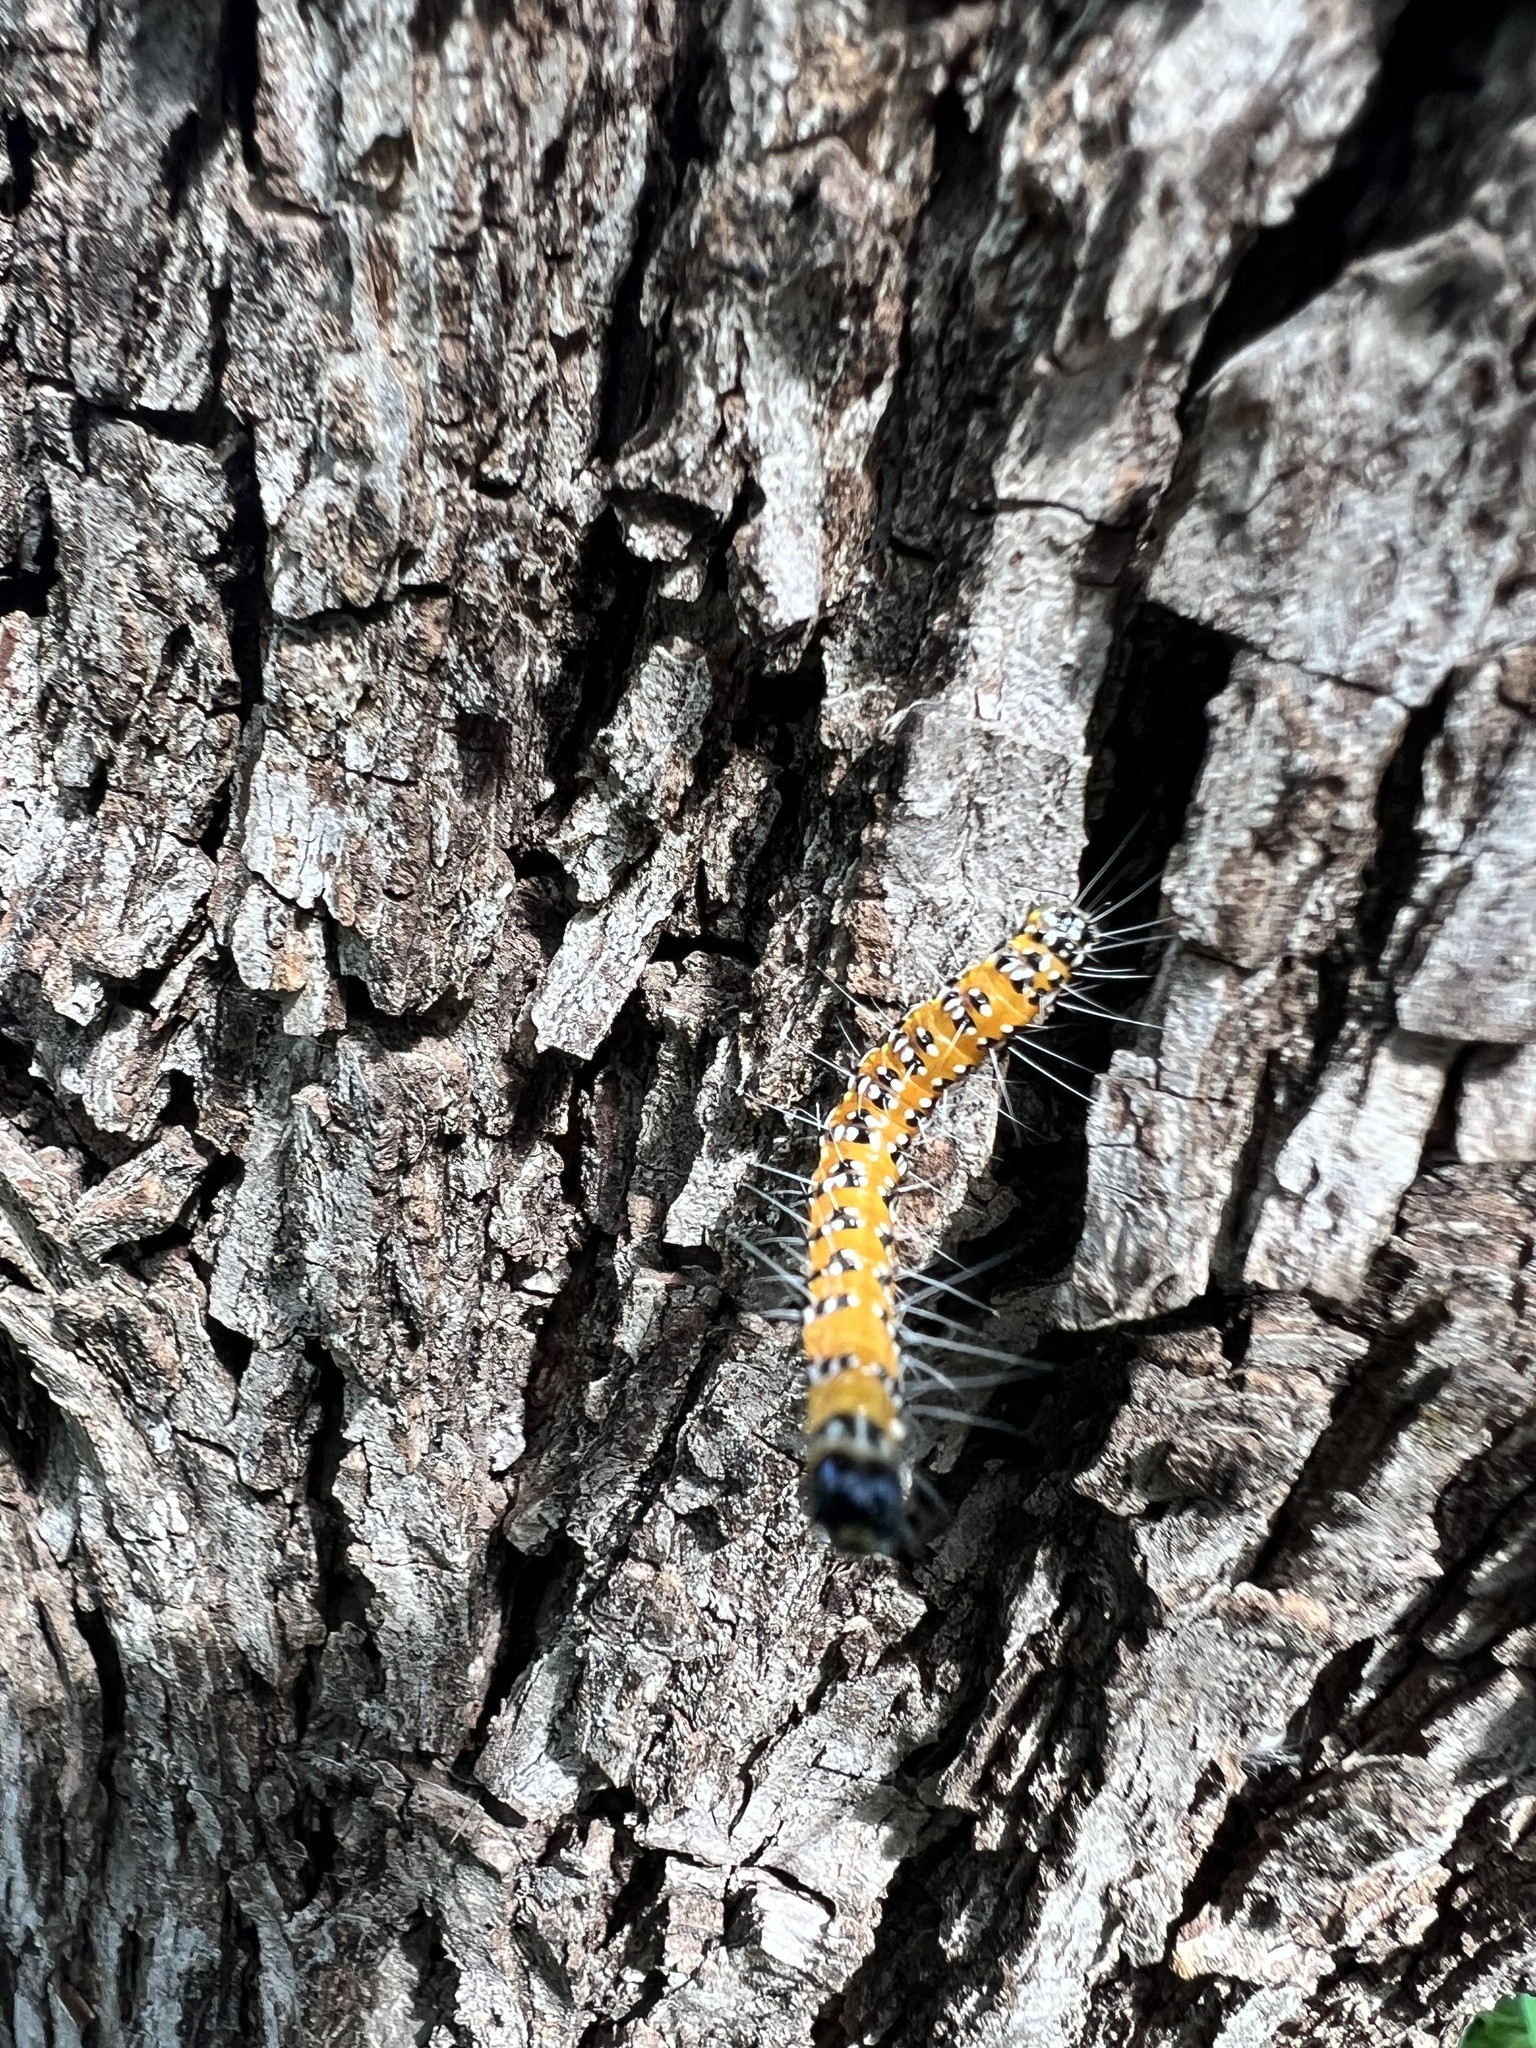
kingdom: Animalia
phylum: Arthropoda
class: Insecta
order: Lepidoptera
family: Crambidae
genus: Uresiphita
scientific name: Uresiphita reversalis
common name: Genista broom moth
